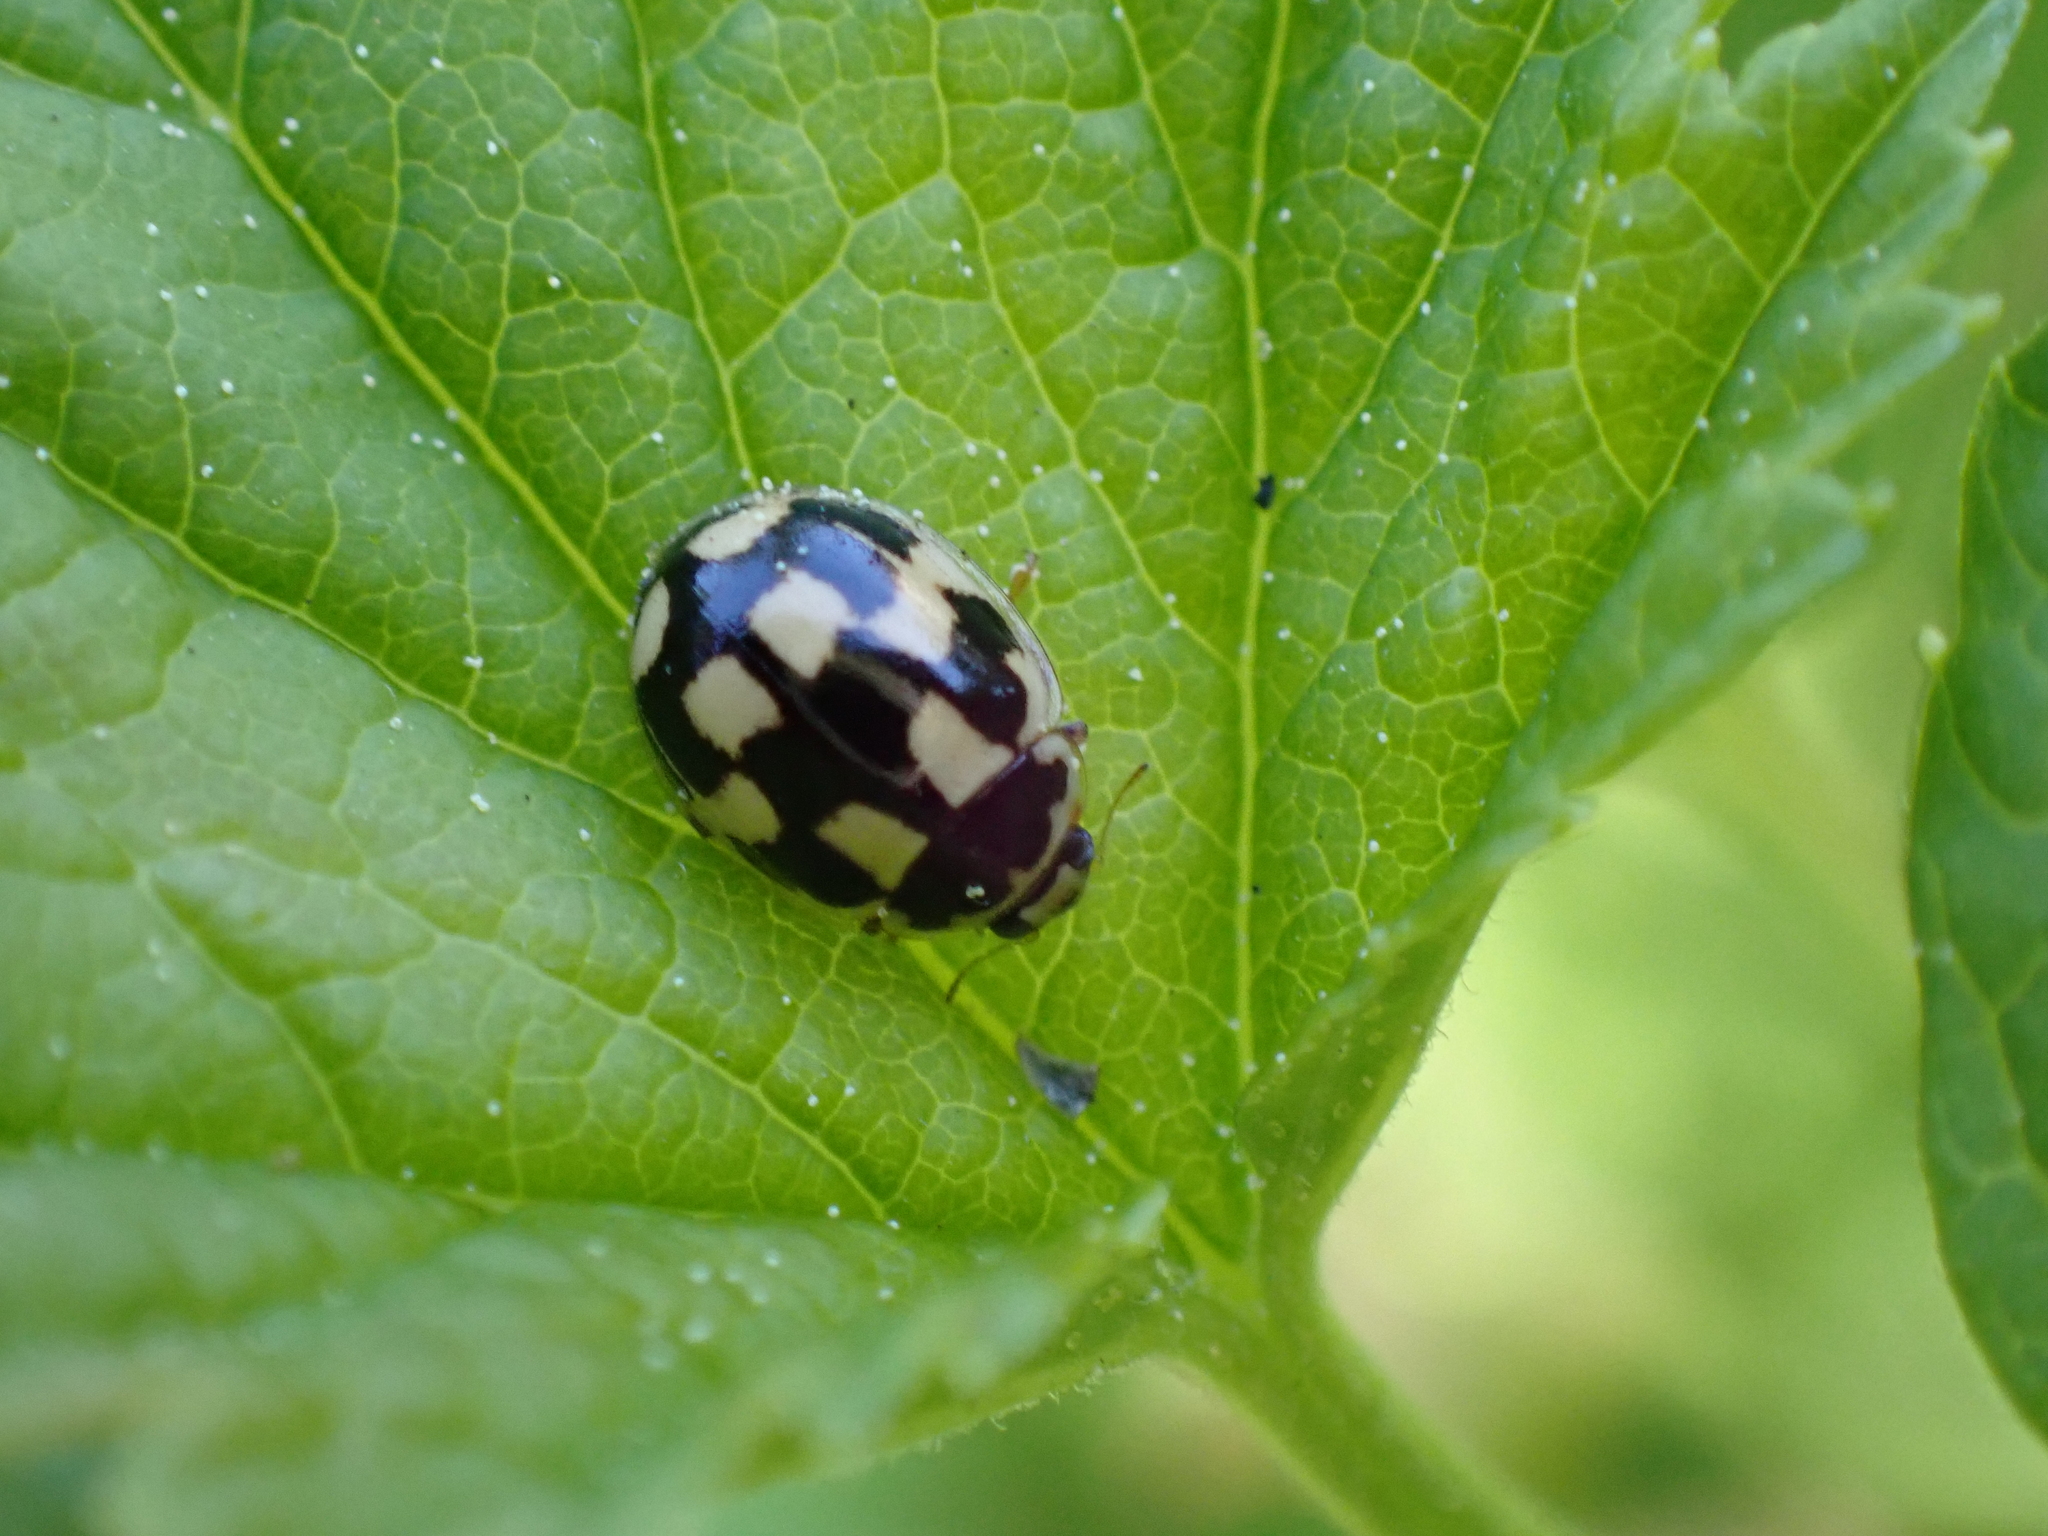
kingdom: Animalia
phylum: Arthropoda
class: Insecta
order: Coleoptera
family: Coccinellidae
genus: Propylaea
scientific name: Propylaea quatuordecimpunctata
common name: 14-spotted ladybird beetle
